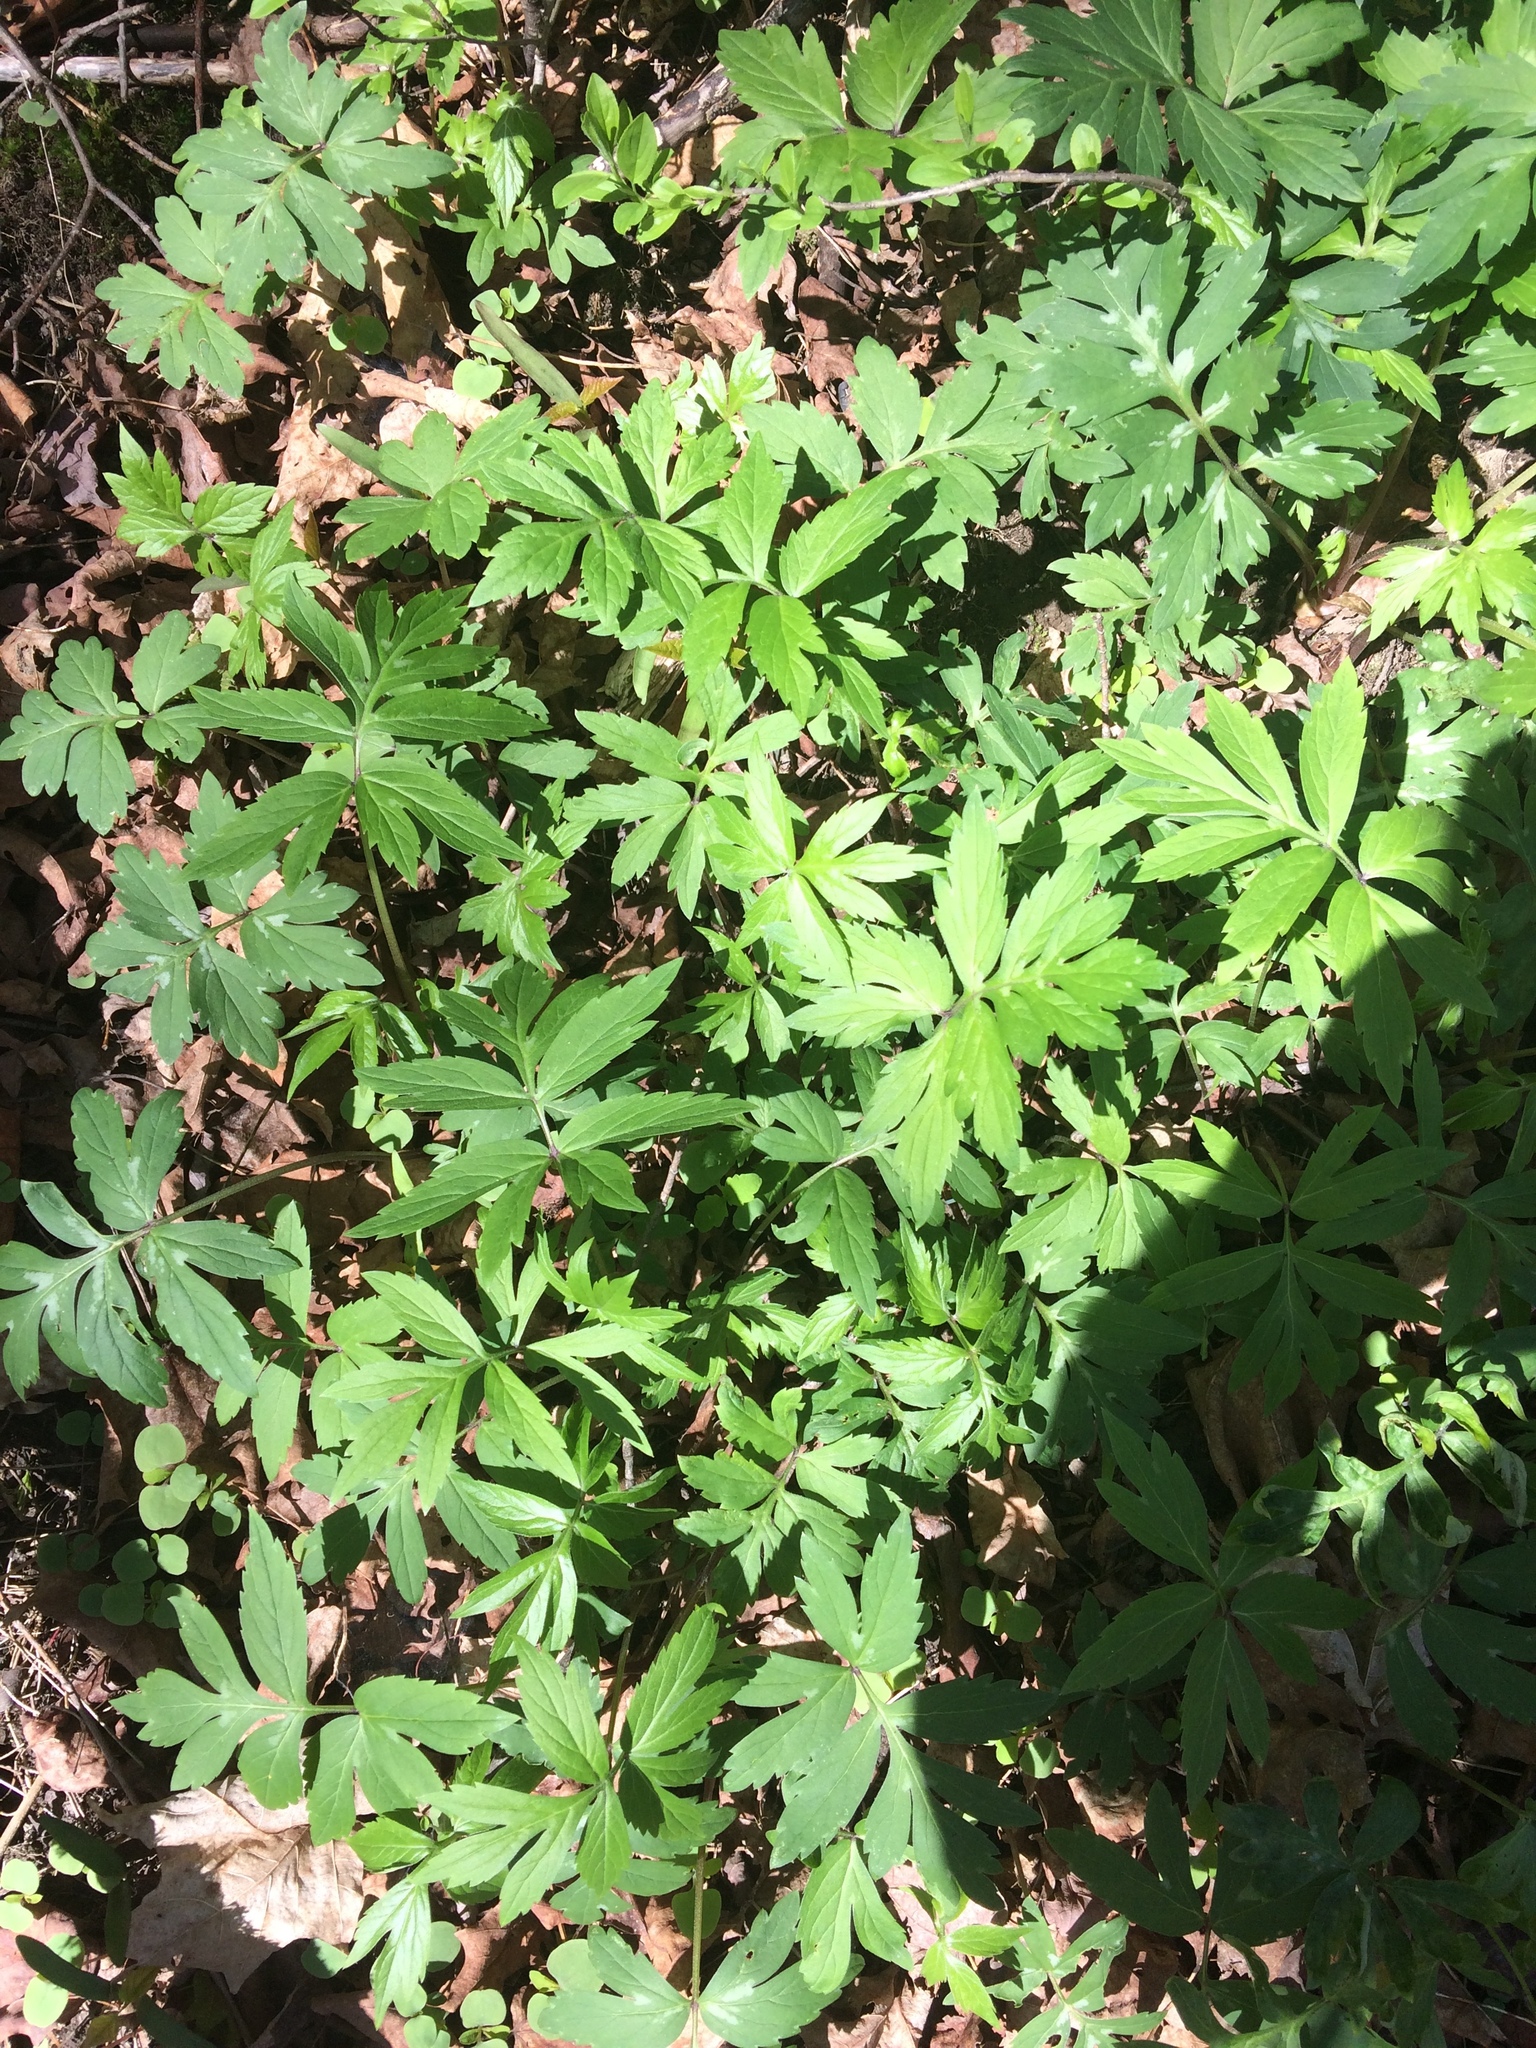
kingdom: Plantae
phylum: Tracheophyta
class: Magnoliopsida
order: Boraginales
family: Hydrophyllaceae
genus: Hydrophyllum
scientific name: Hydrophyllum virginianum
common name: Virginia waterleaf
